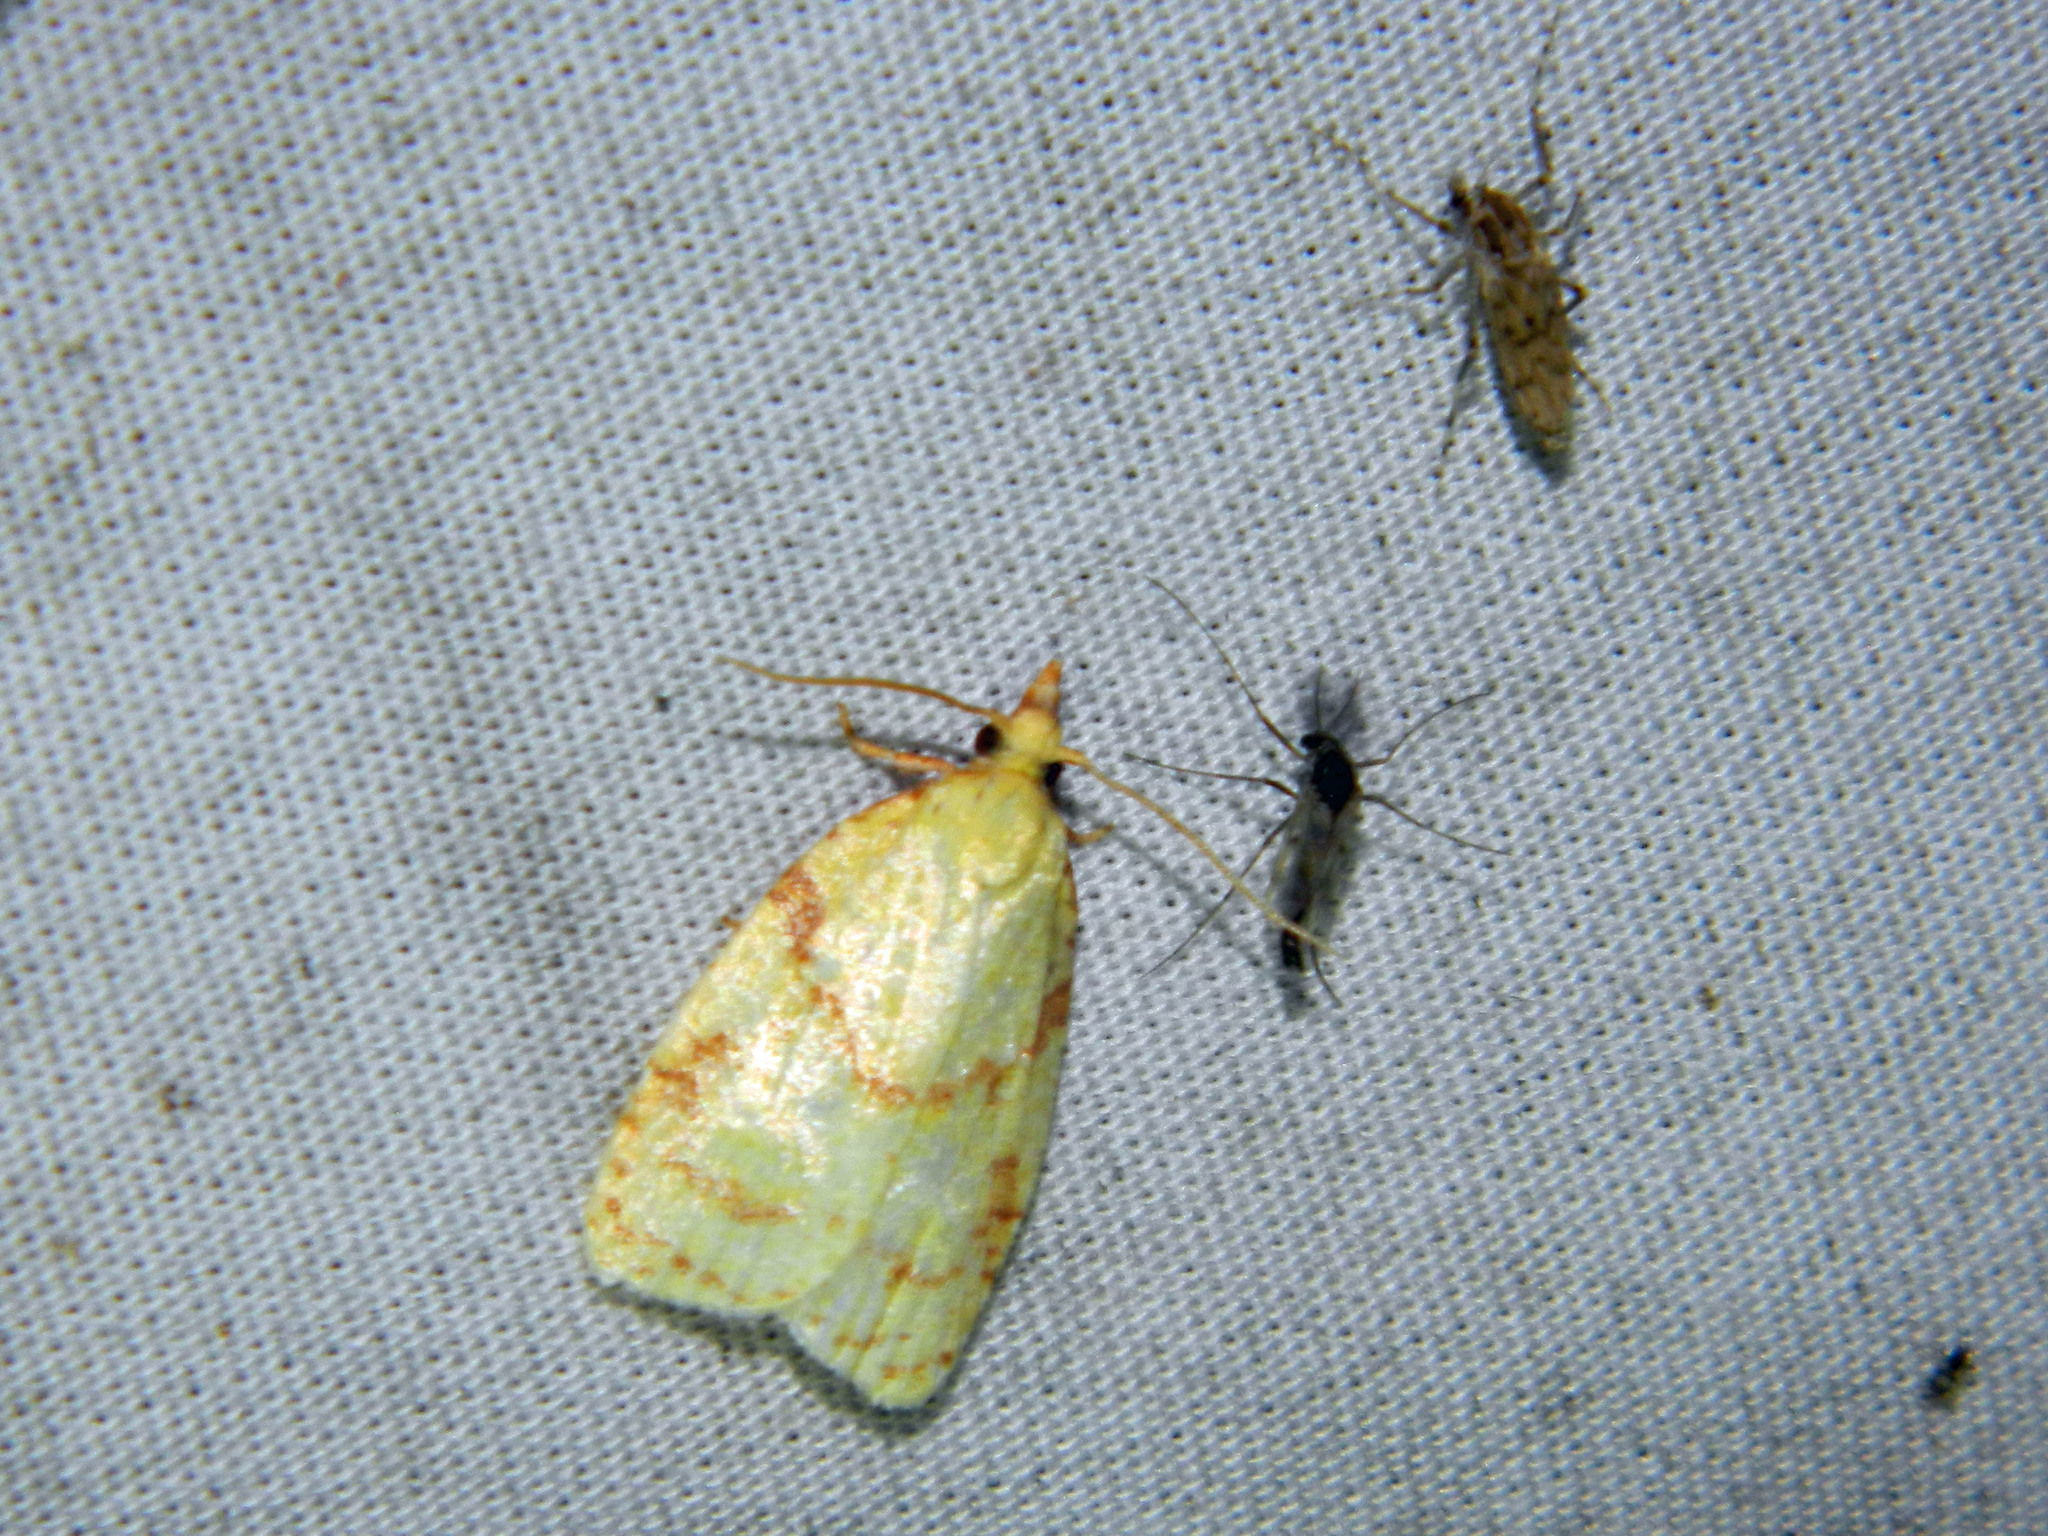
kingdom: Animalia
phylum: Arthropoda
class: Insecta
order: Lepidoptera
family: Tortricidae
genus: Cenopis
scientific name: Cenopis pettitana
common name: Maple-basswood leafroller moth
